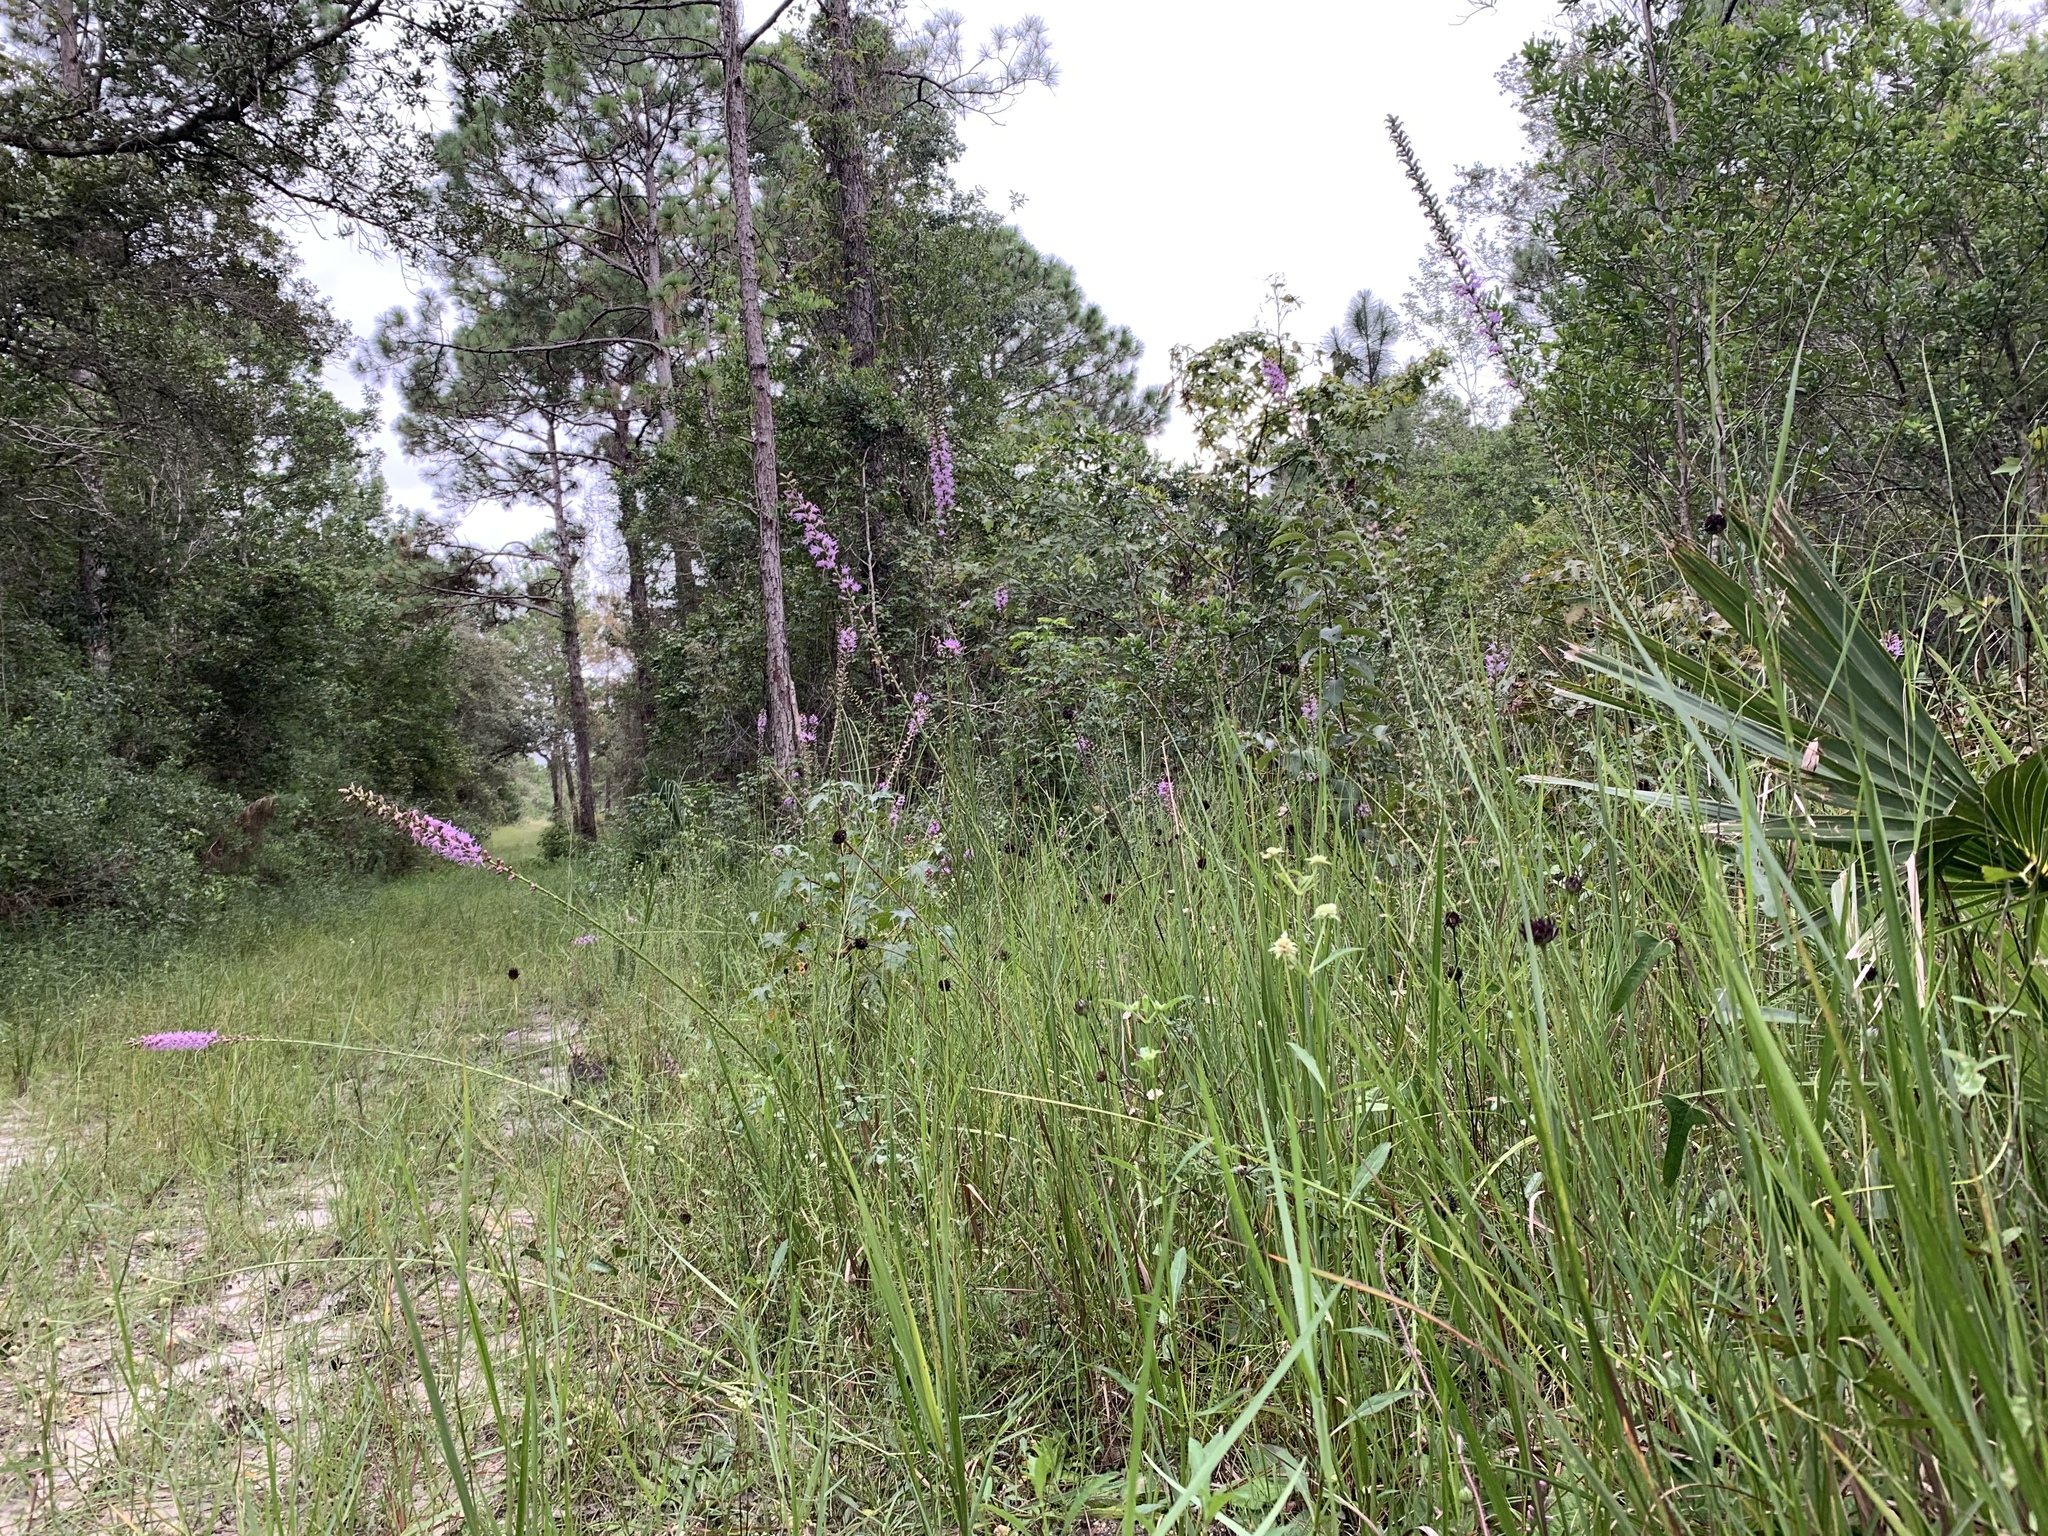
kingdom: Plantae
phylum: Tracheophyta
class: Magnoliopsida
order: Asterales
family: Asteraceae
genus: Helianthus
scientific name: Helianthus radula
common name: Pineland sunflower
